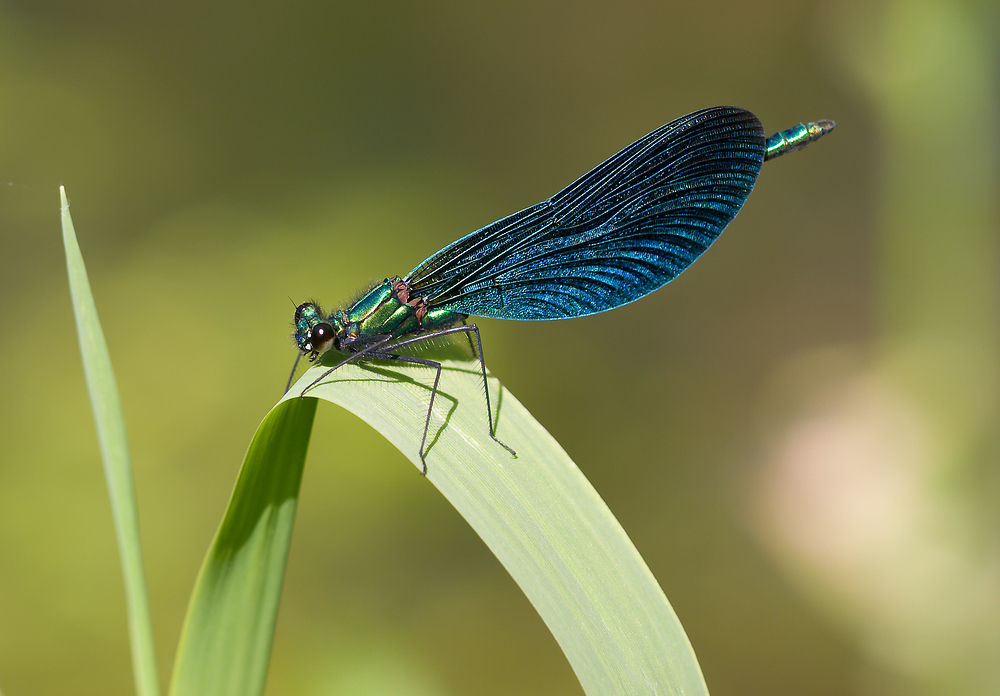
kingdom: Animalia
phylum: Arthropoda
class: Insecta
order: Odonata
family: Calopterygidae
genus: Calopteryx
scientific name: Calopteryx virgo
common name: Beautiful demoiselle
